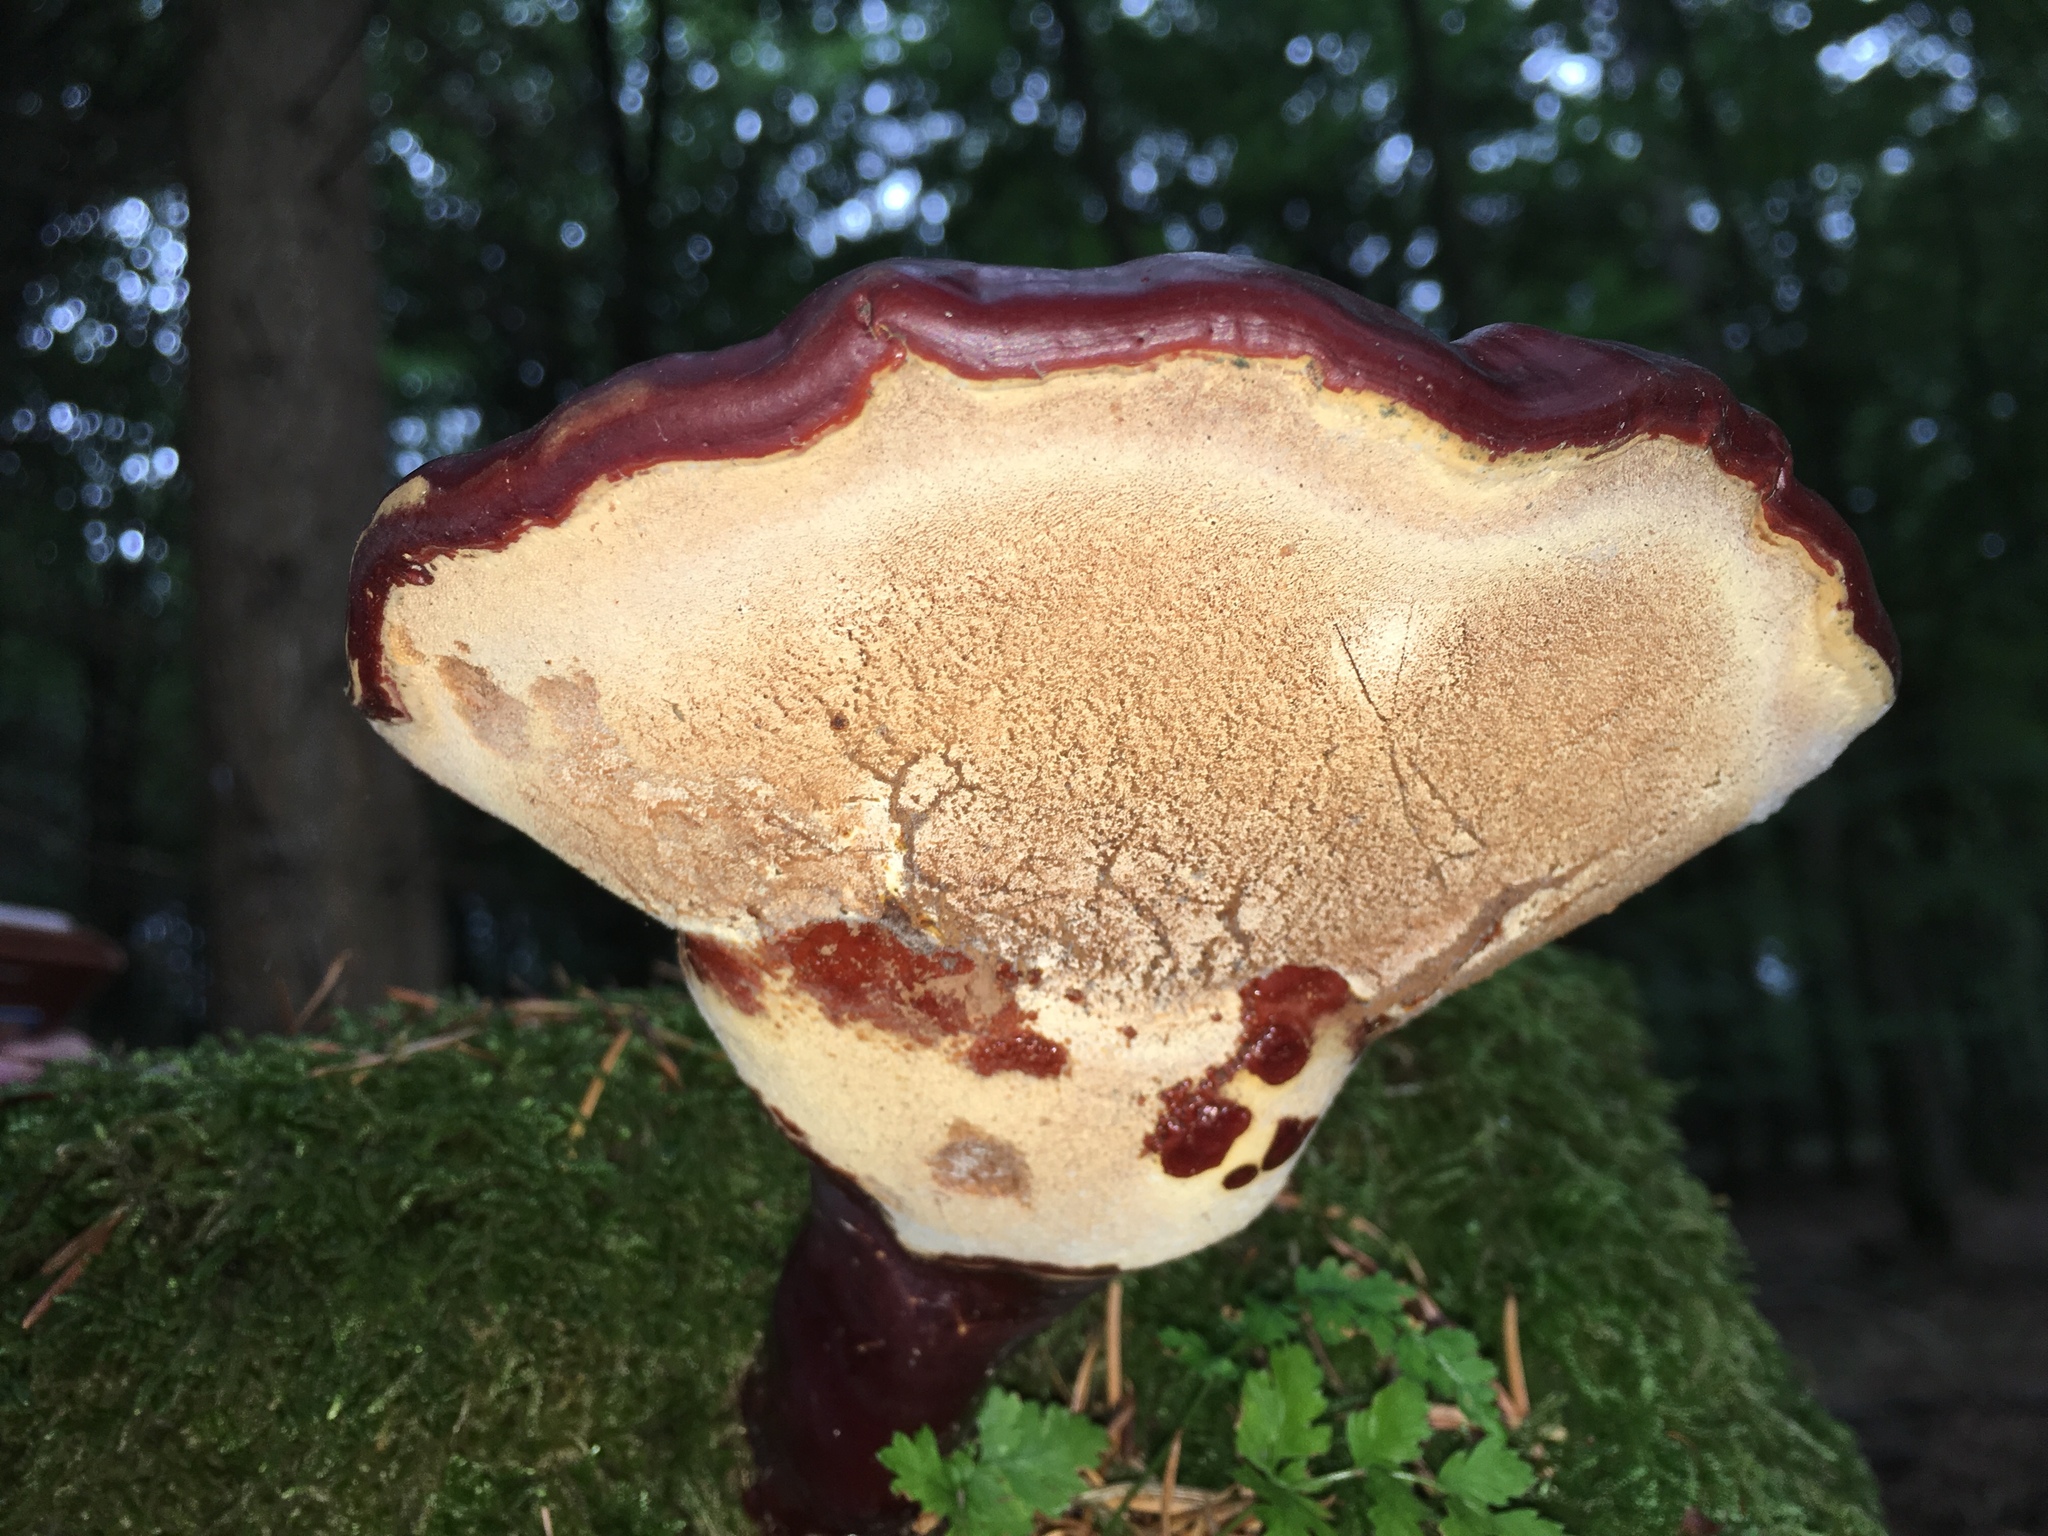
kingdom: Fungi
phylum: Basidiomycota
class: Agaricomycetes
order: Polyporales
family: Polyporaceae
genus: Ganoderma
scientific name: Ganoderma lucidum
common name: Lacquered bracket
